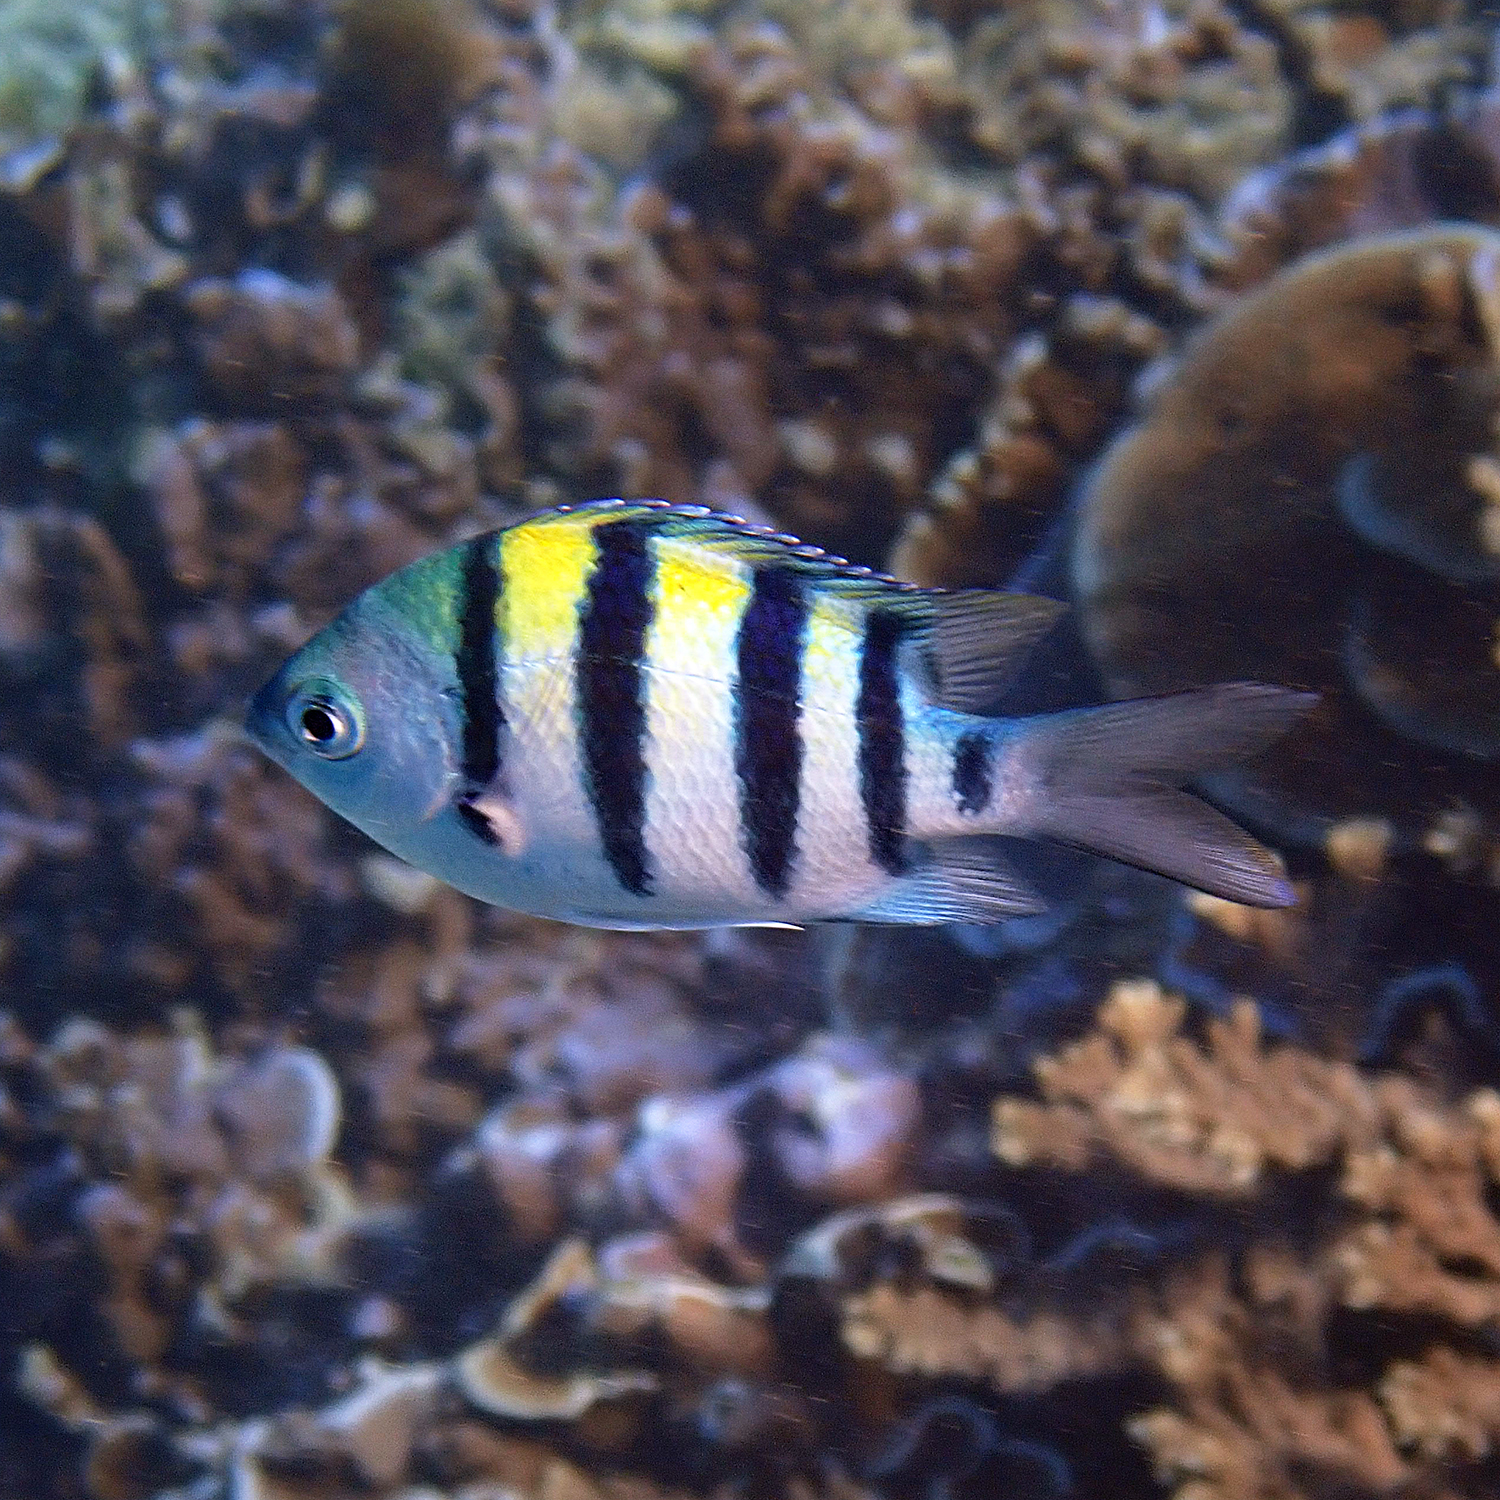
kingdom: Animalia
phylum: Chordata
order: Perciformes
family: Pomacentridae
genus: Abudefduf
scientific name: Abudefduf vaigiensis
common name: Indo-pacific sergeant
